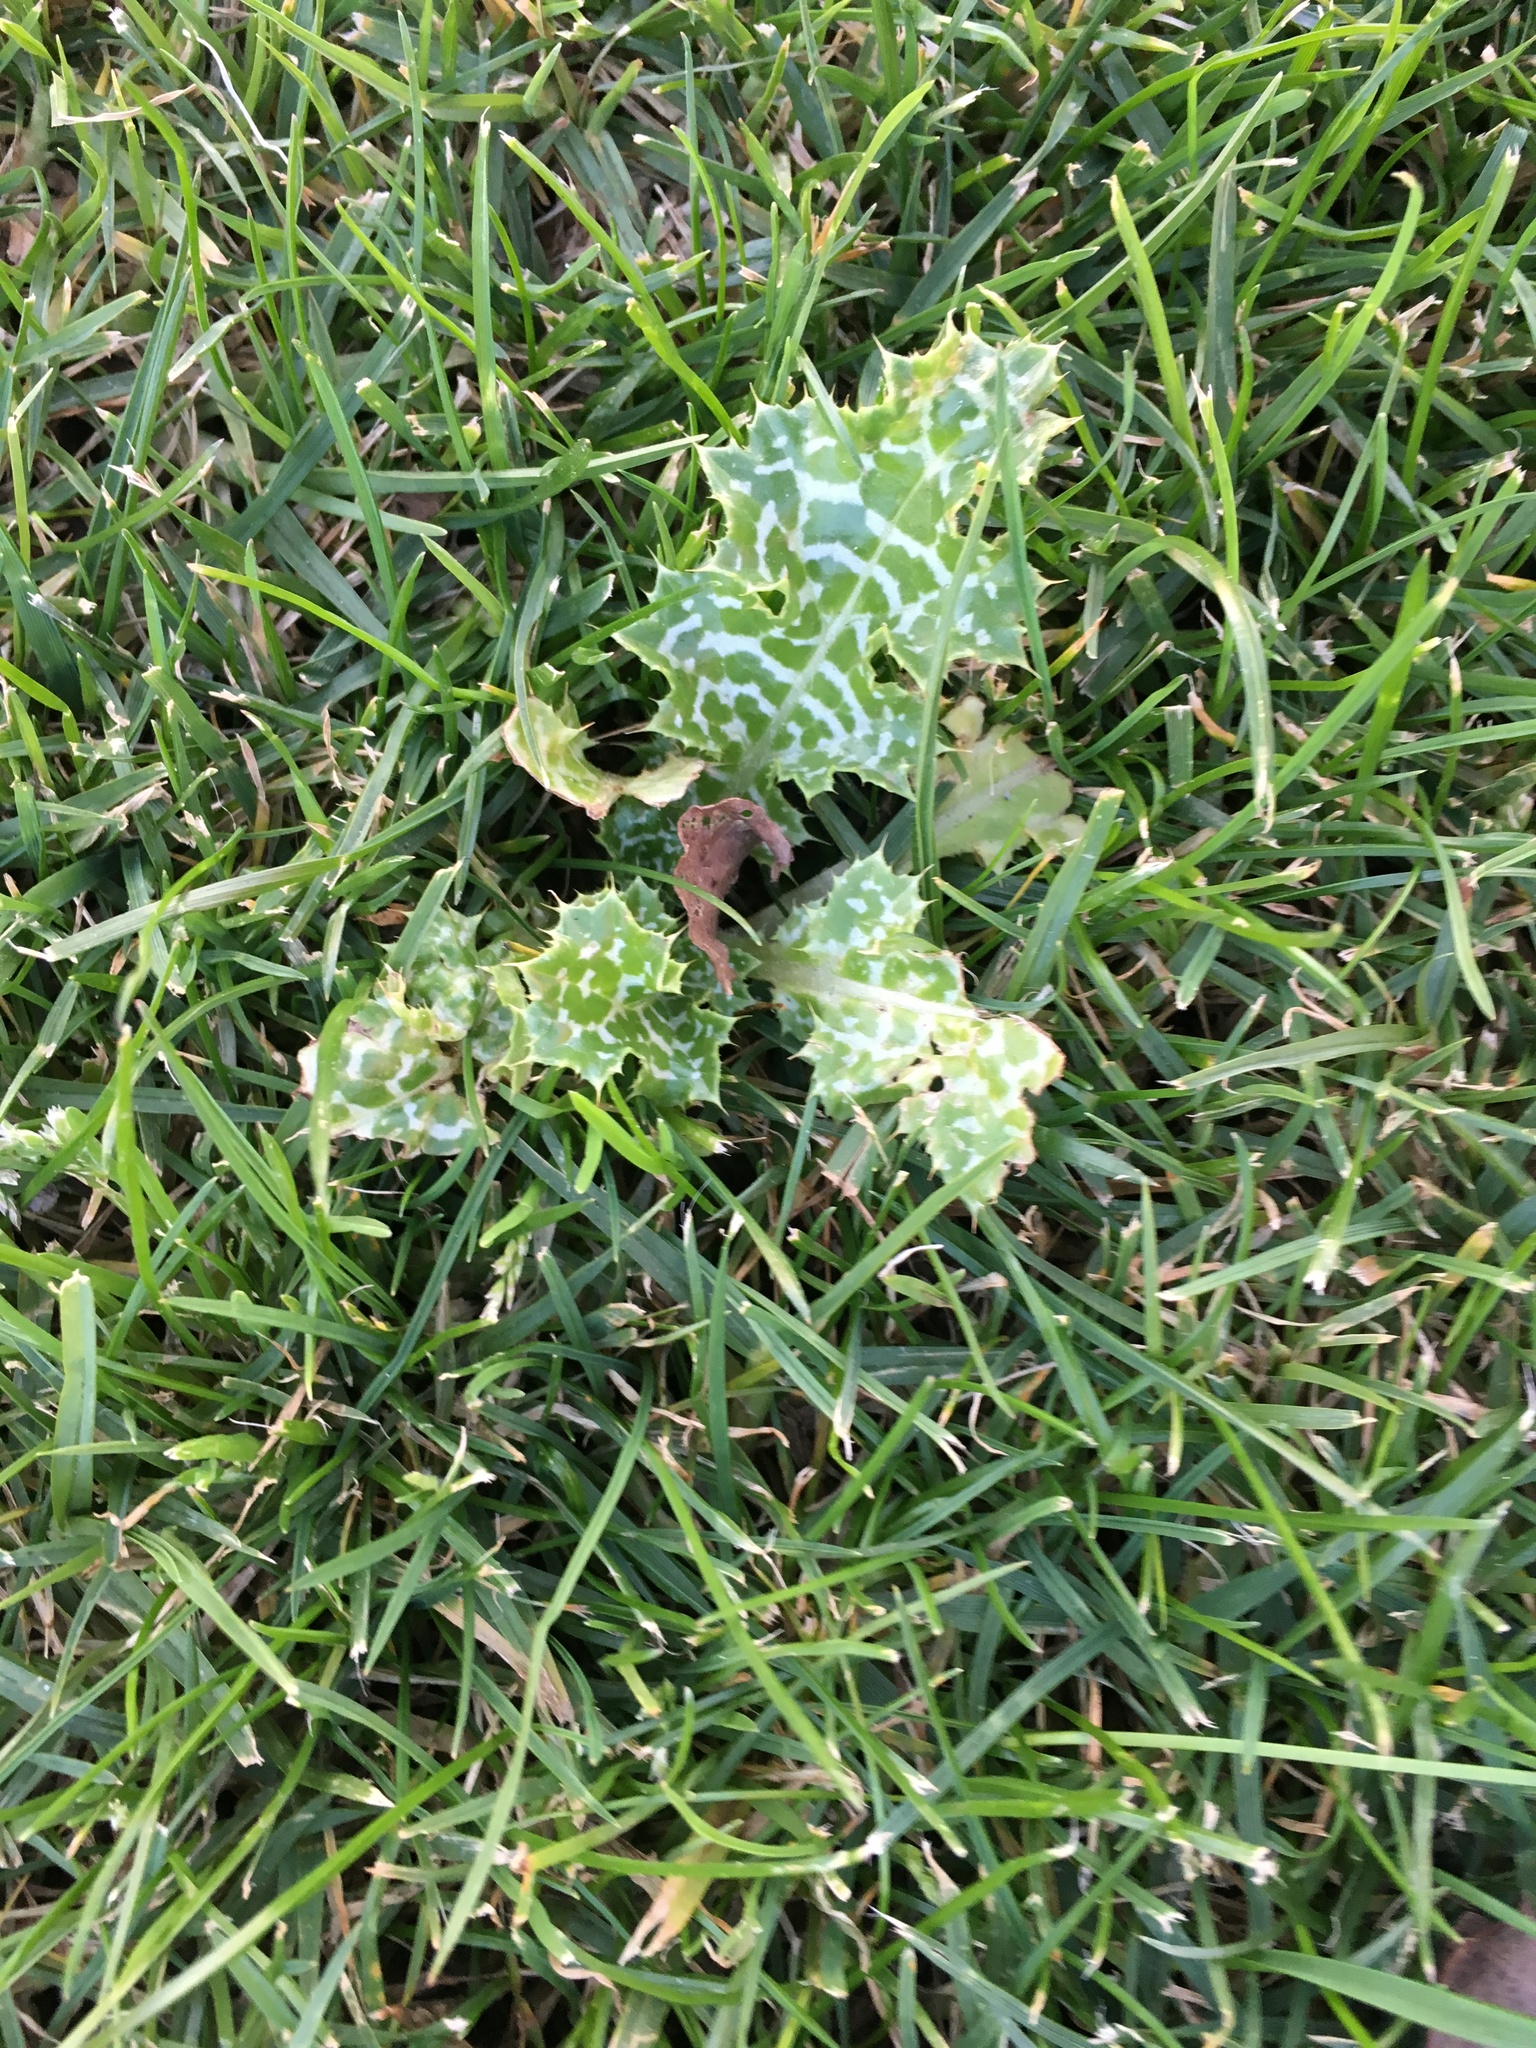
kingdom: Plantae
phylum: Tracheophyta
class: Magnoliopsida
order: Asterales
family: Asteraceae
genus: Silybum
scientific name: Silybum marianum
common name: Milk thistle
